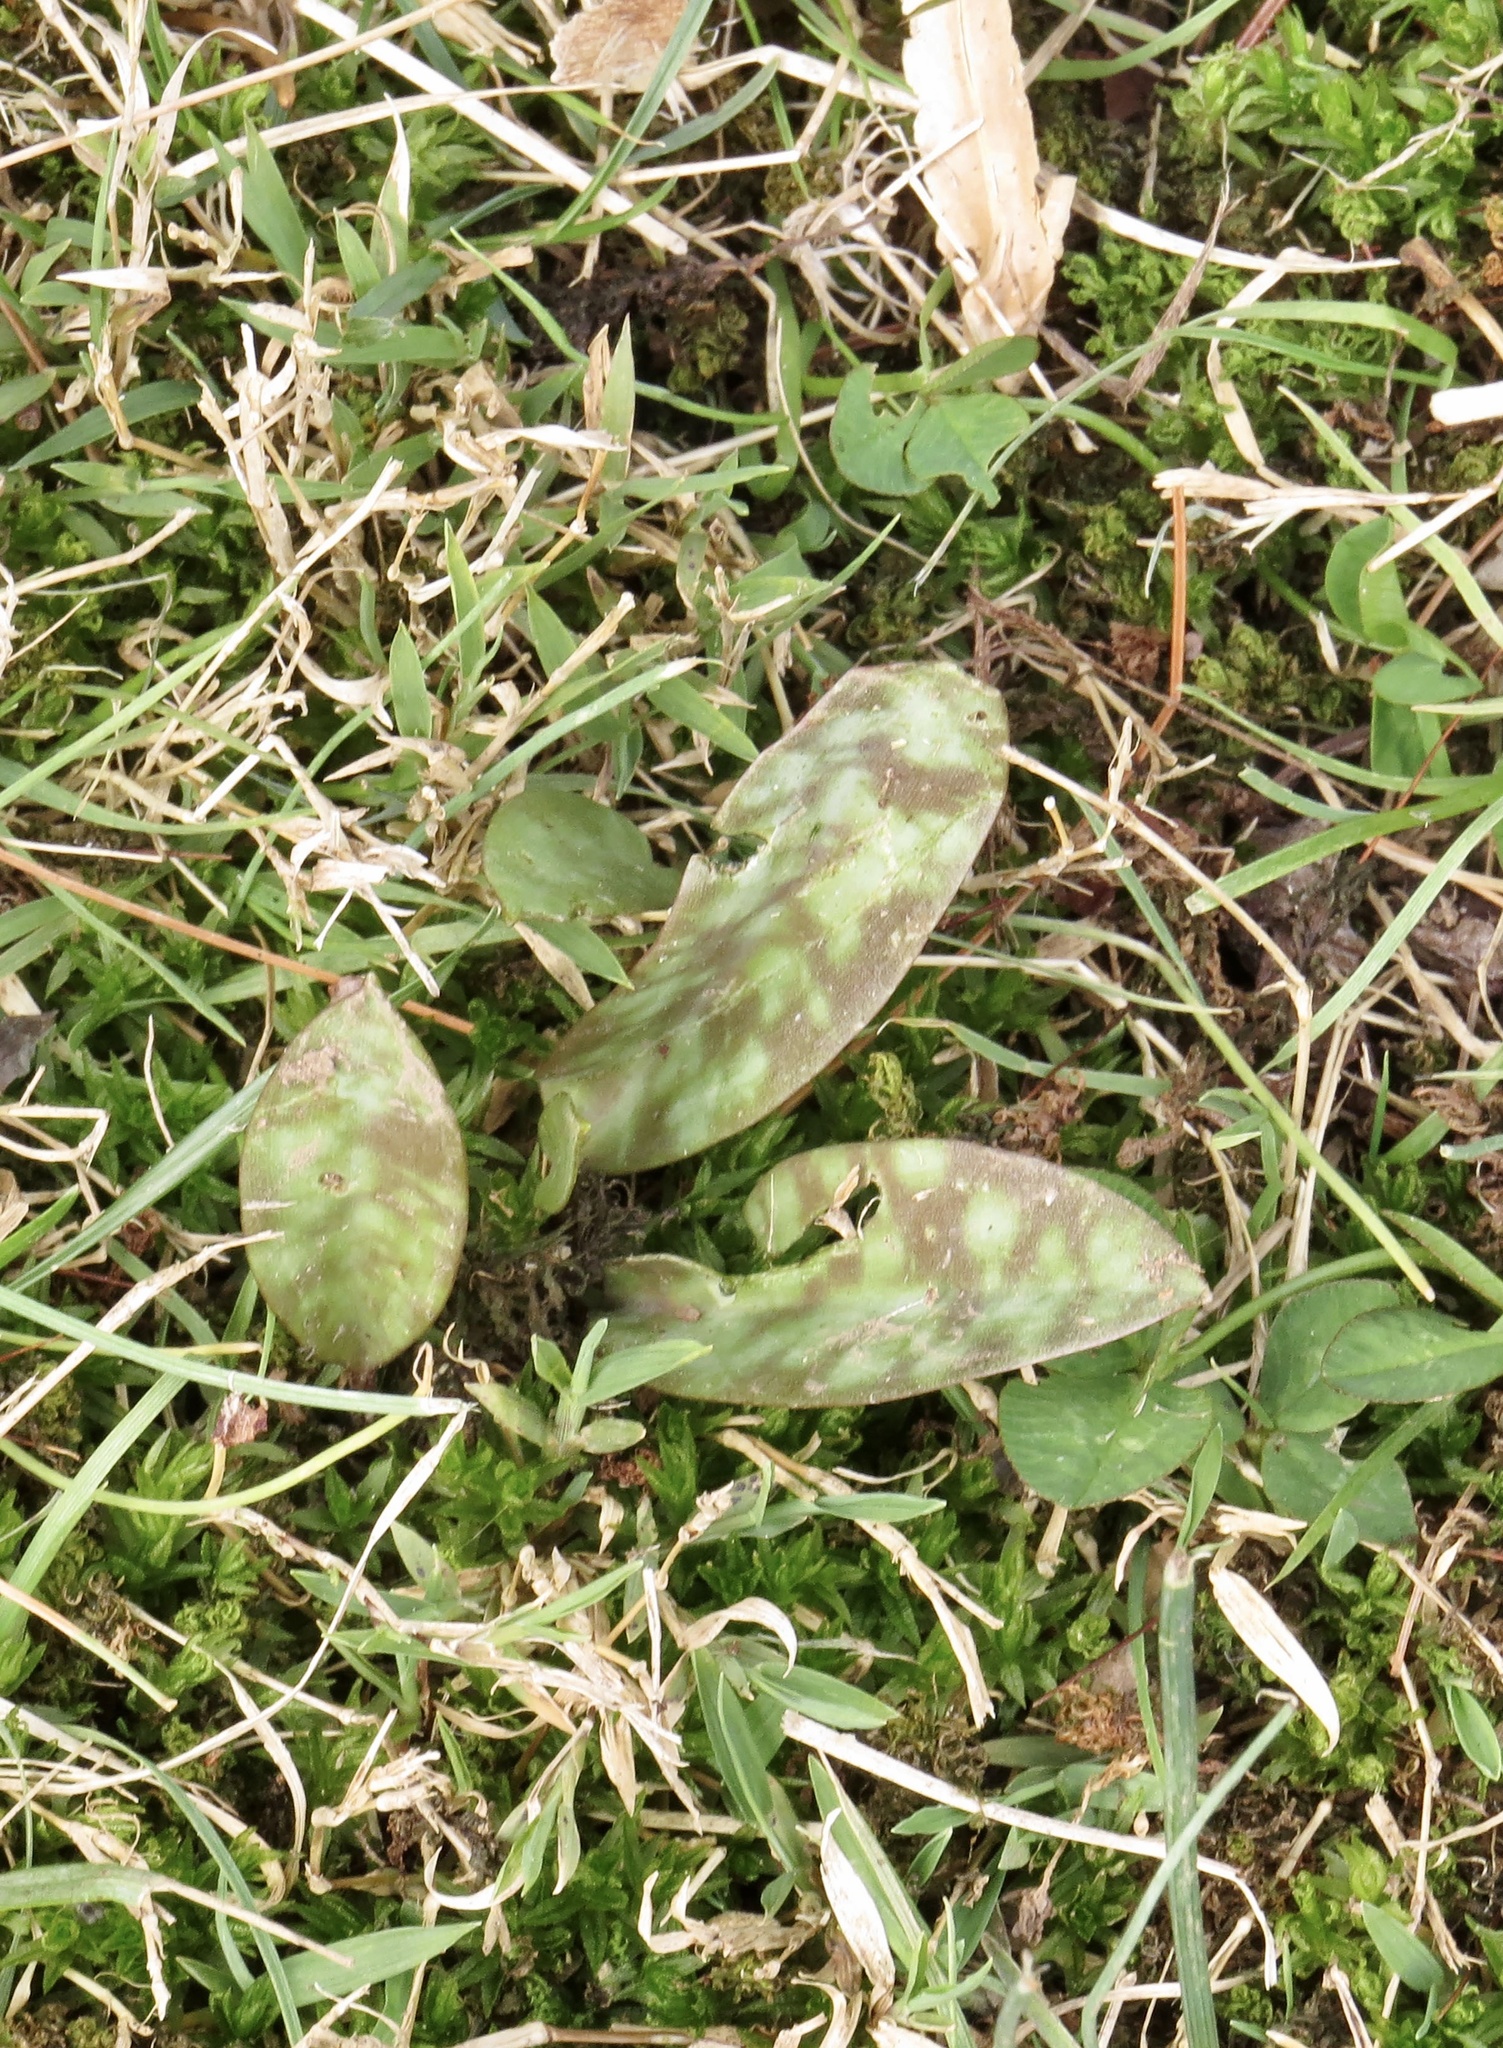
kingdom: Plantae
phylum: Tracheophyta
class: Liliopsida
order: Liliales
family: Liliaceae
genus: Erythronium
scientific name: Erythronium americanum
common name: Yellow adder's-tongue
